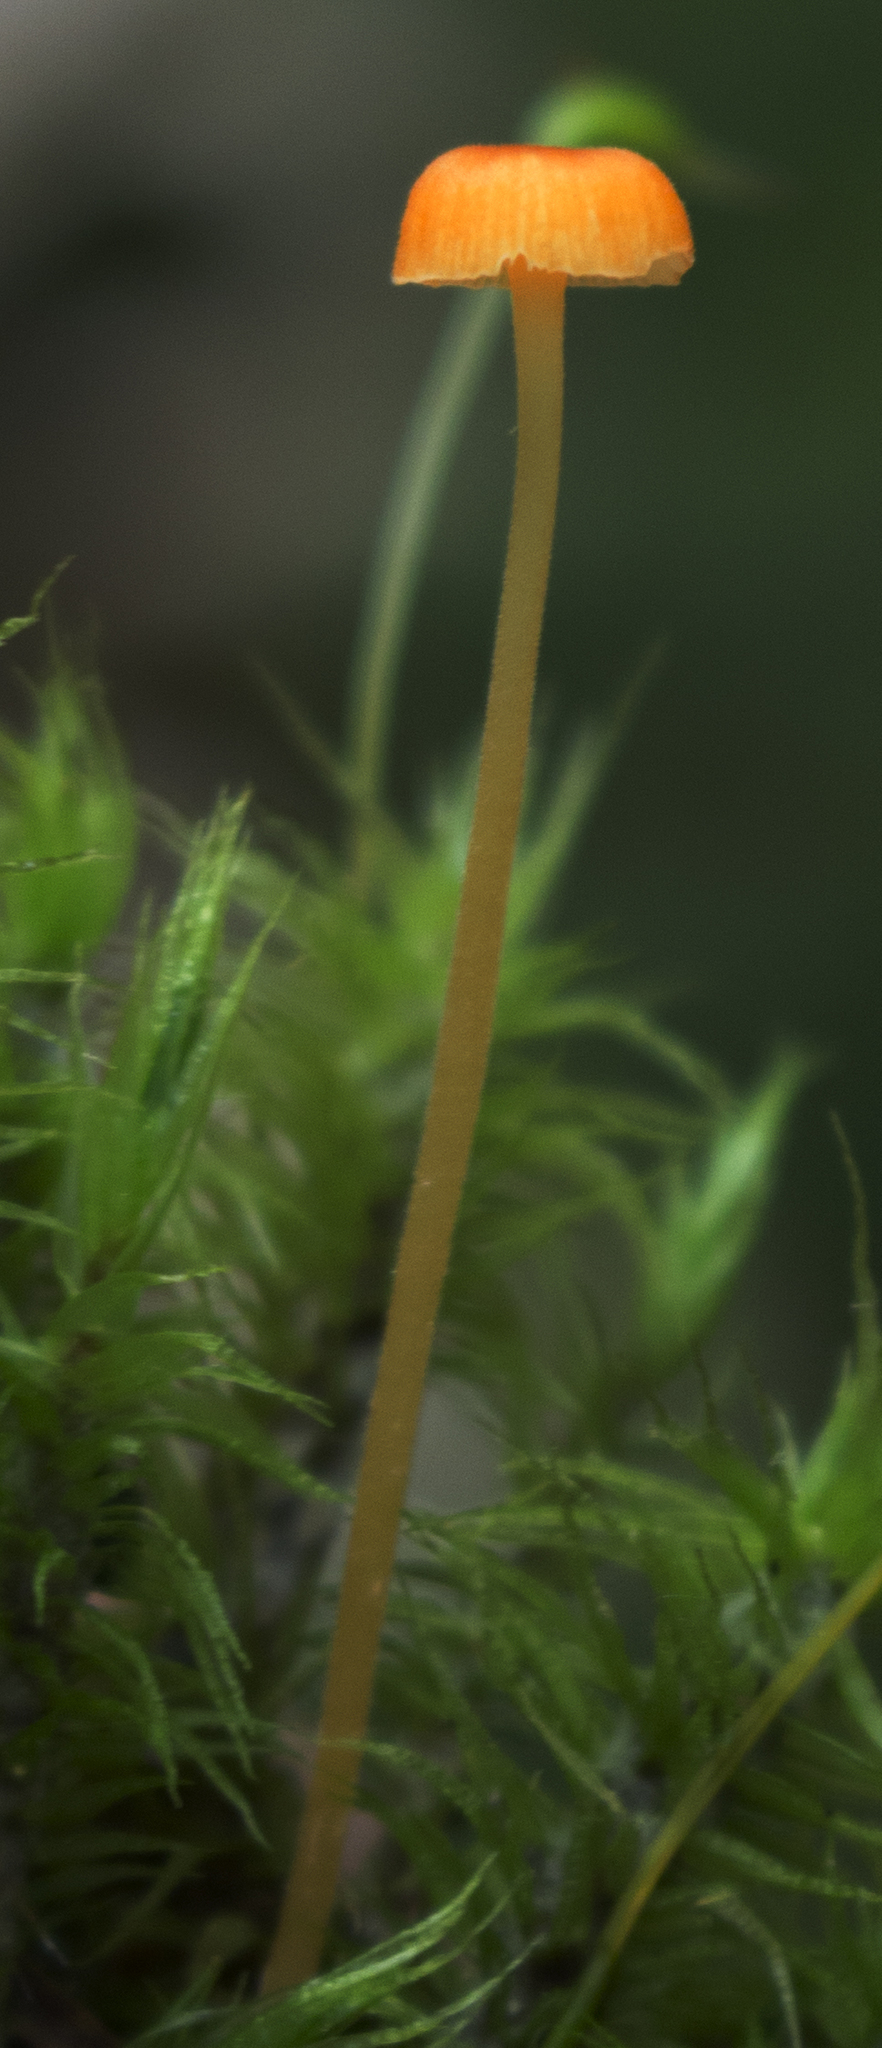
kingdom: Fungi
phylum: Basidiomycota
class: Agaricomycetes
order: Hymenochaetales
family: Rickenellaceae
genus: Rickenella
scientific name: Rickenella fibula
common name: Orange mosscap
